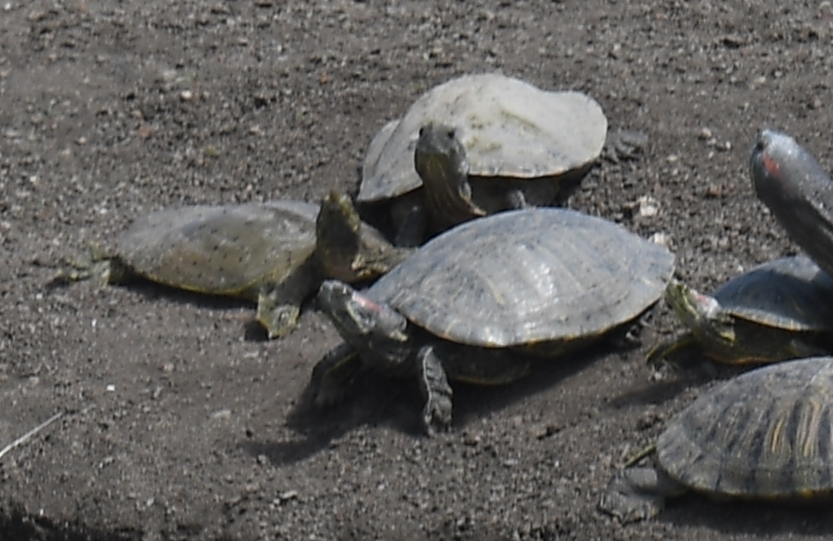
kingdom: Animalia
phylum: Chordata
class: Testudines
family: Trionychidae
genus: Apalone
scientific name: Apalone spinifera
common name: Spiny softshell turtle
